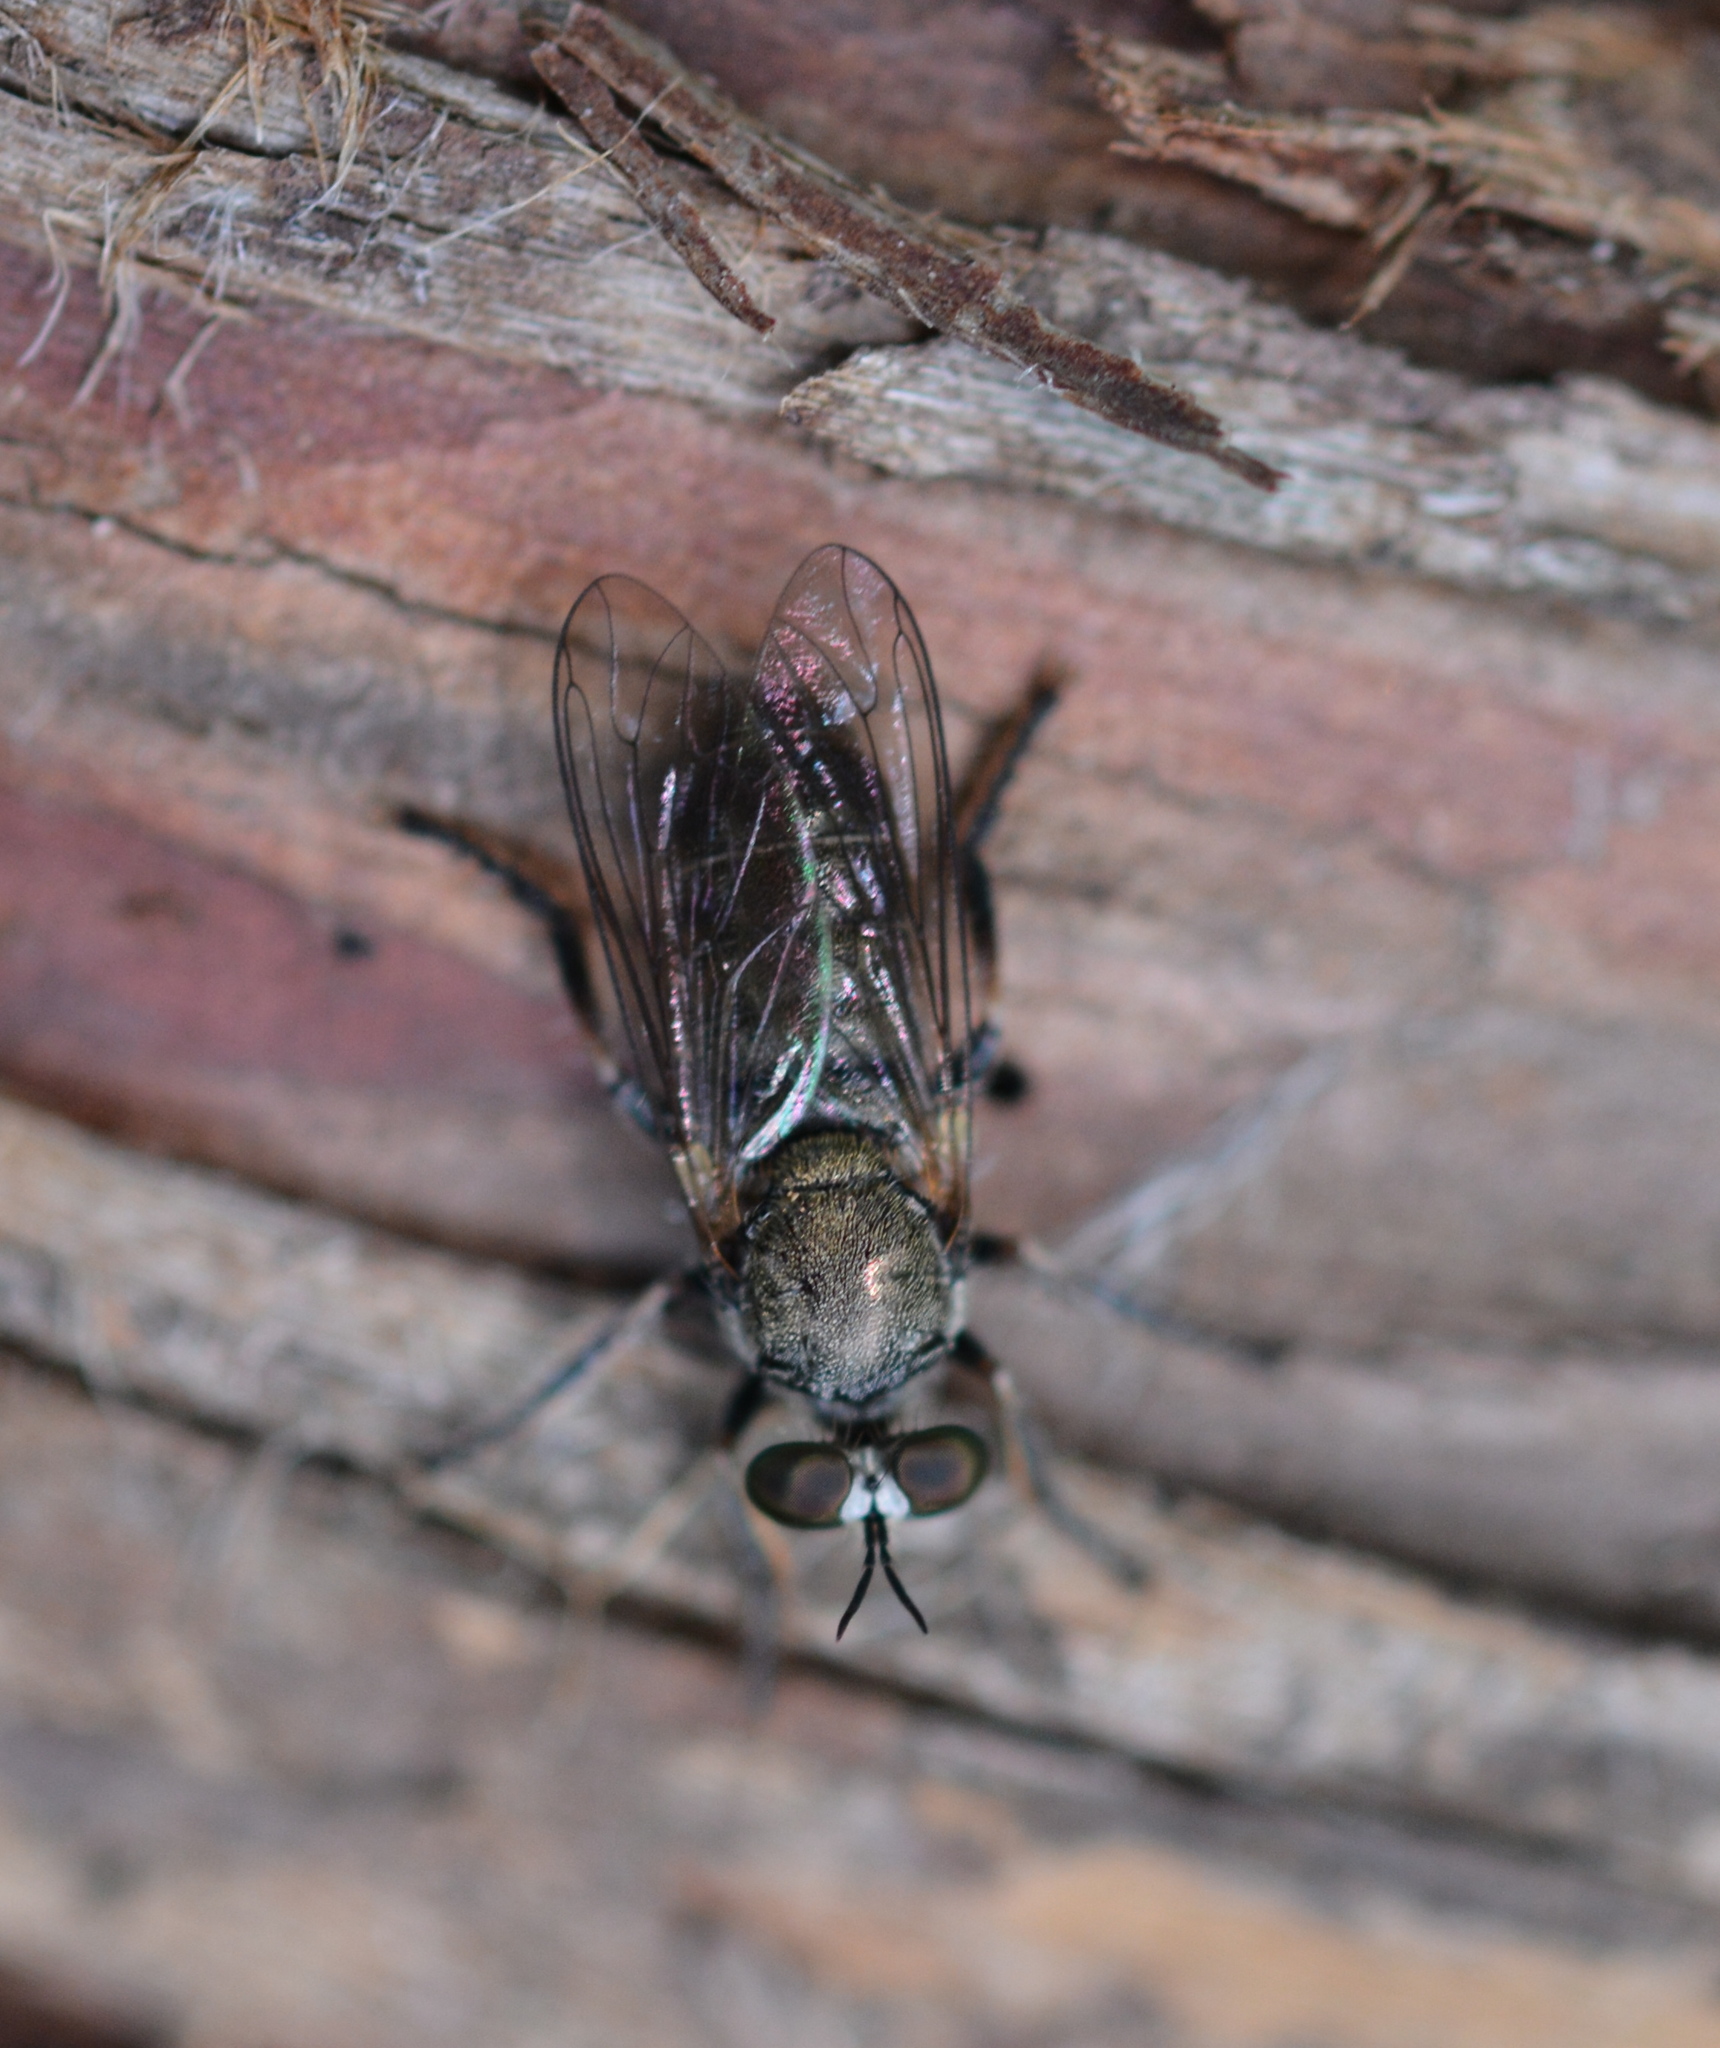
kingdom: Animalia
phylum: Arthropoda
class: Insecta
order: Diptera
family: Asilidae
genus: Atomosia
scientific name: Atomosia puella
